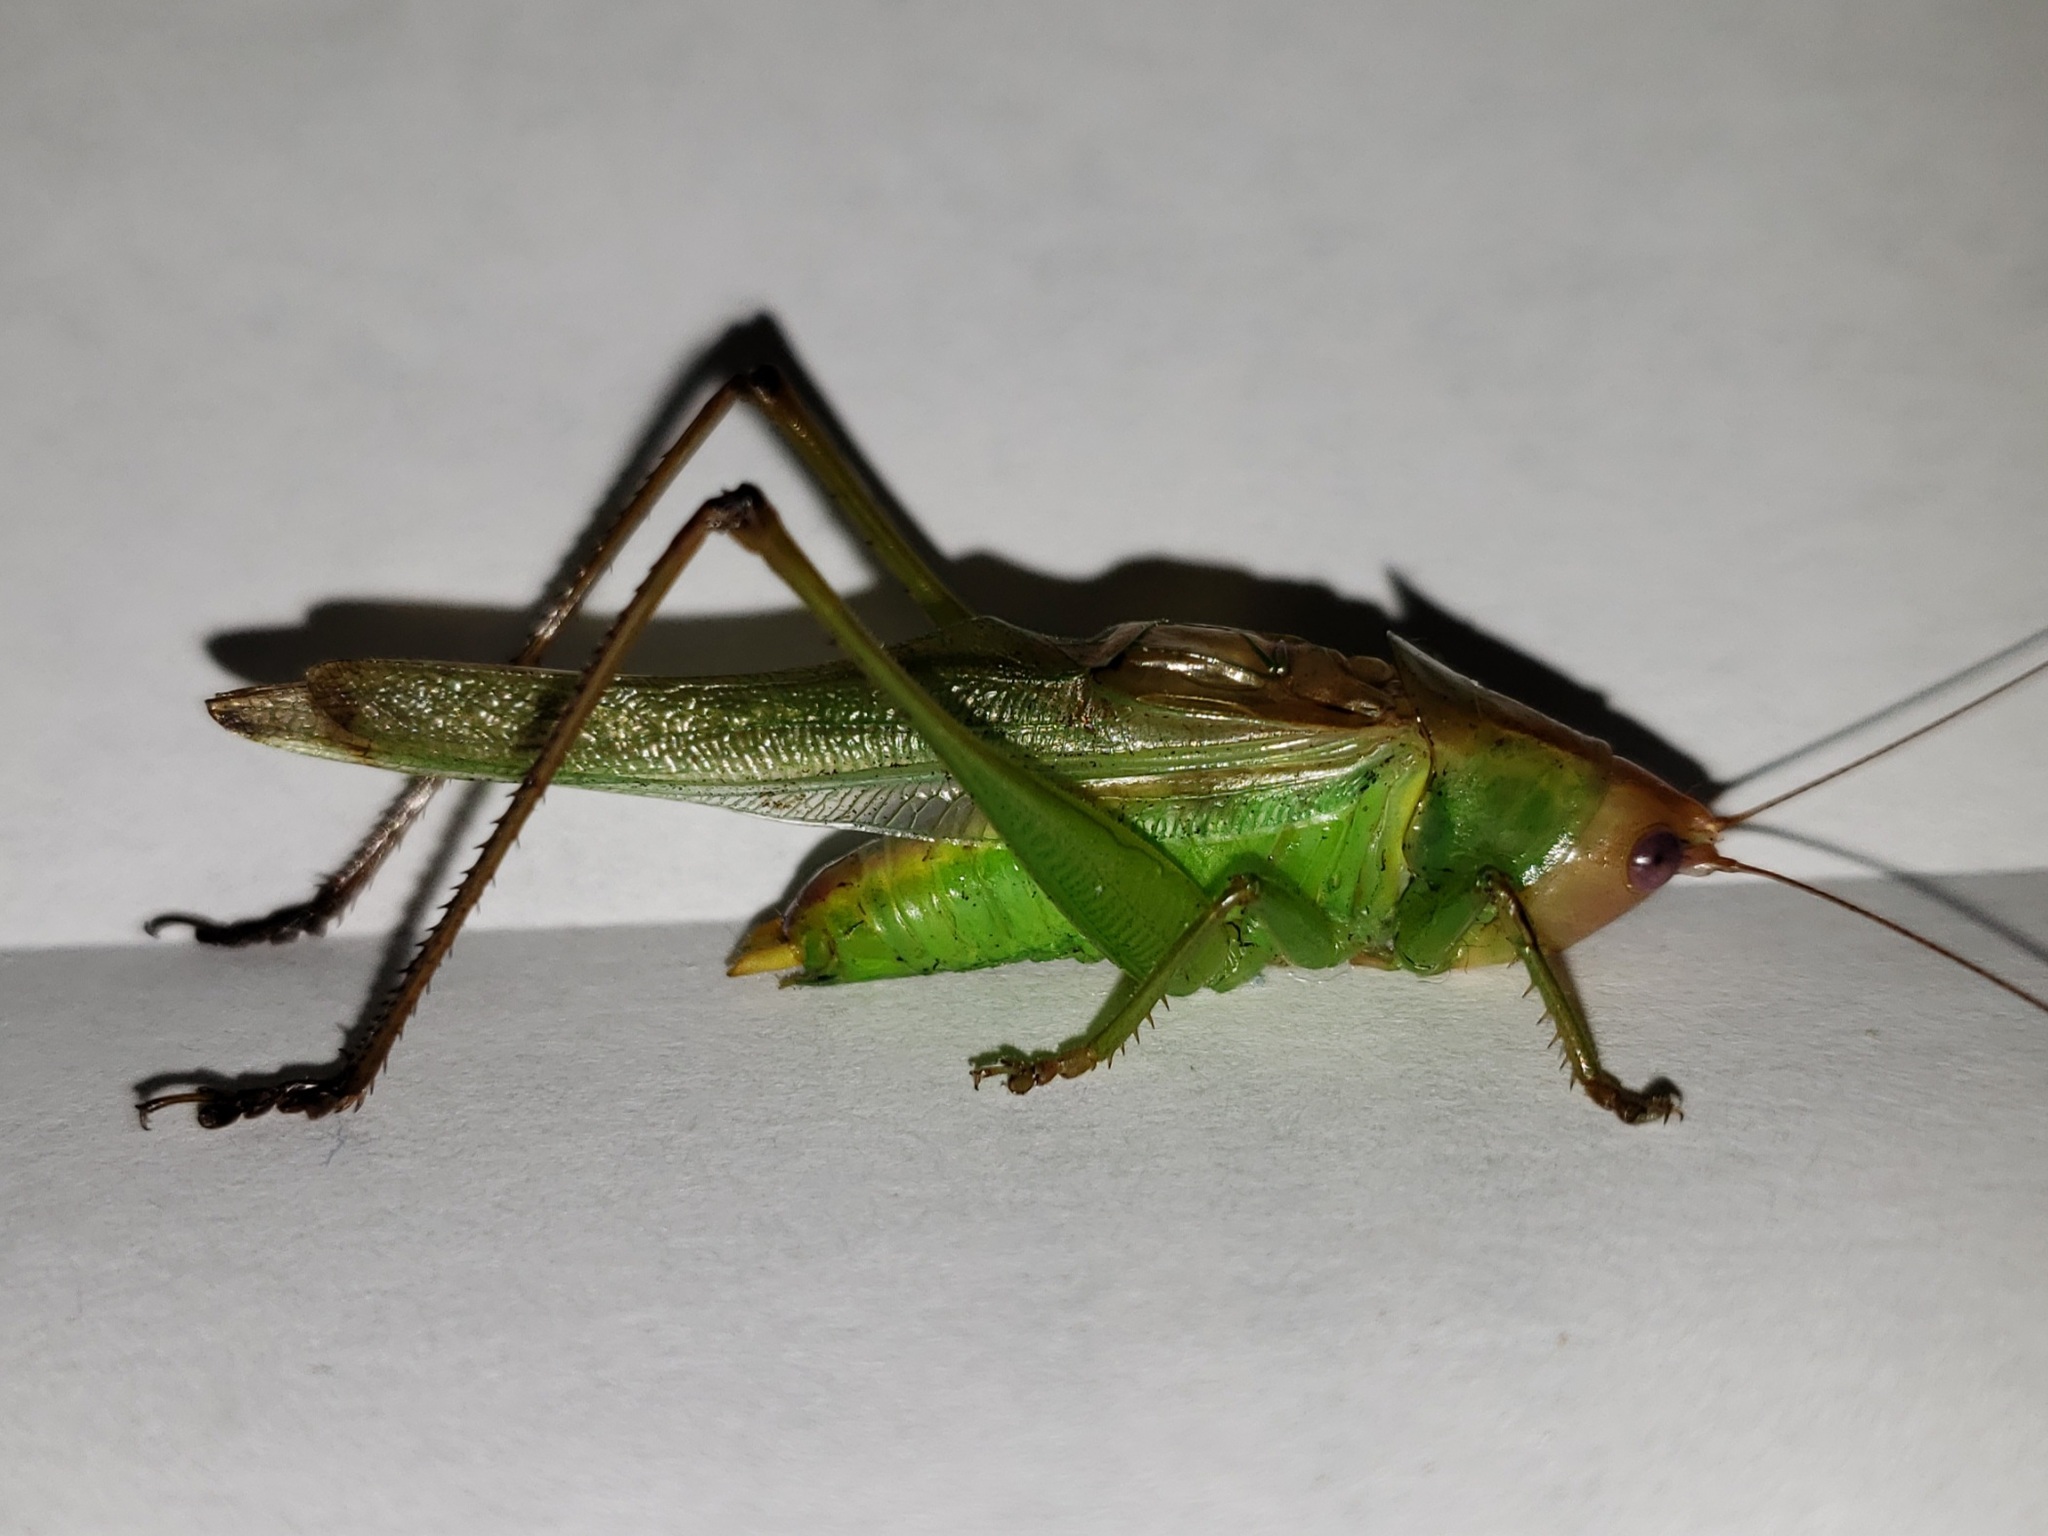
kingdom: Animalia
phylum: Arthropoda
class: Insecta
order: Orthoptera
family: Tettigoniidae
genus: Orchelimum
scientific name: Orchelimum erythrocephalum
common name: Red-headed meadow katydid
